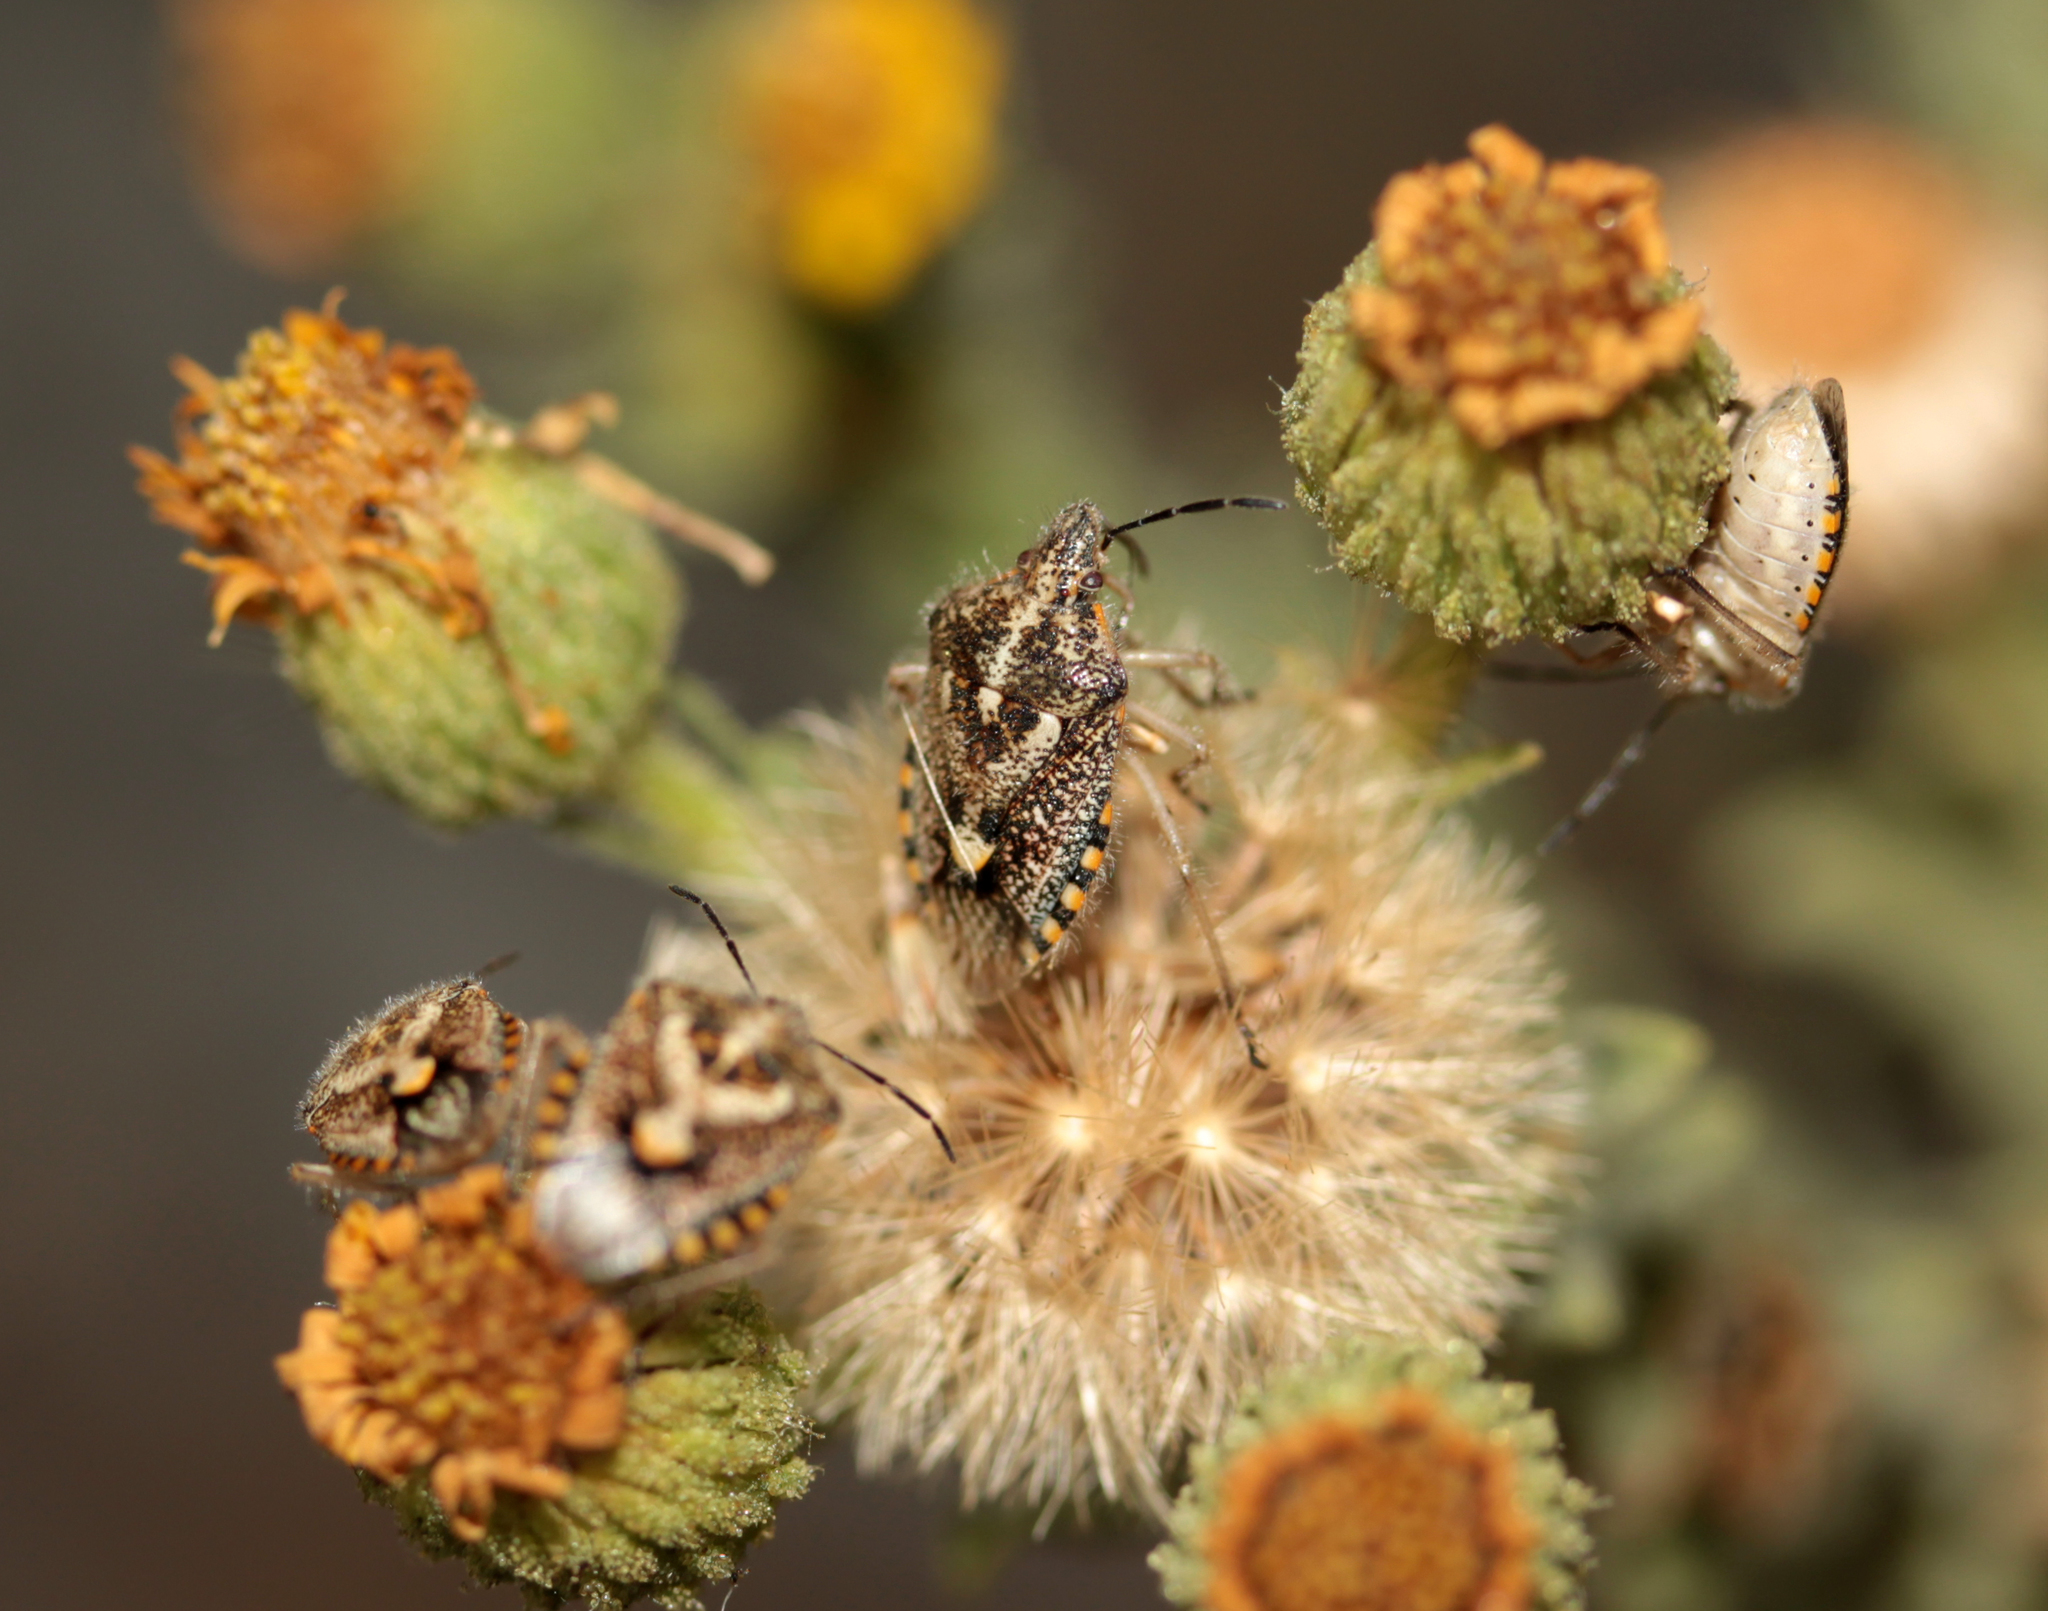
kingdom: Animalia
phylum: Arthropoda
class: Insecta
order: Hemiptera
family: Pentatomidae
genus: Agonoscelis
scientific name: Agonoscelis puberula
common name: African cluster bug
